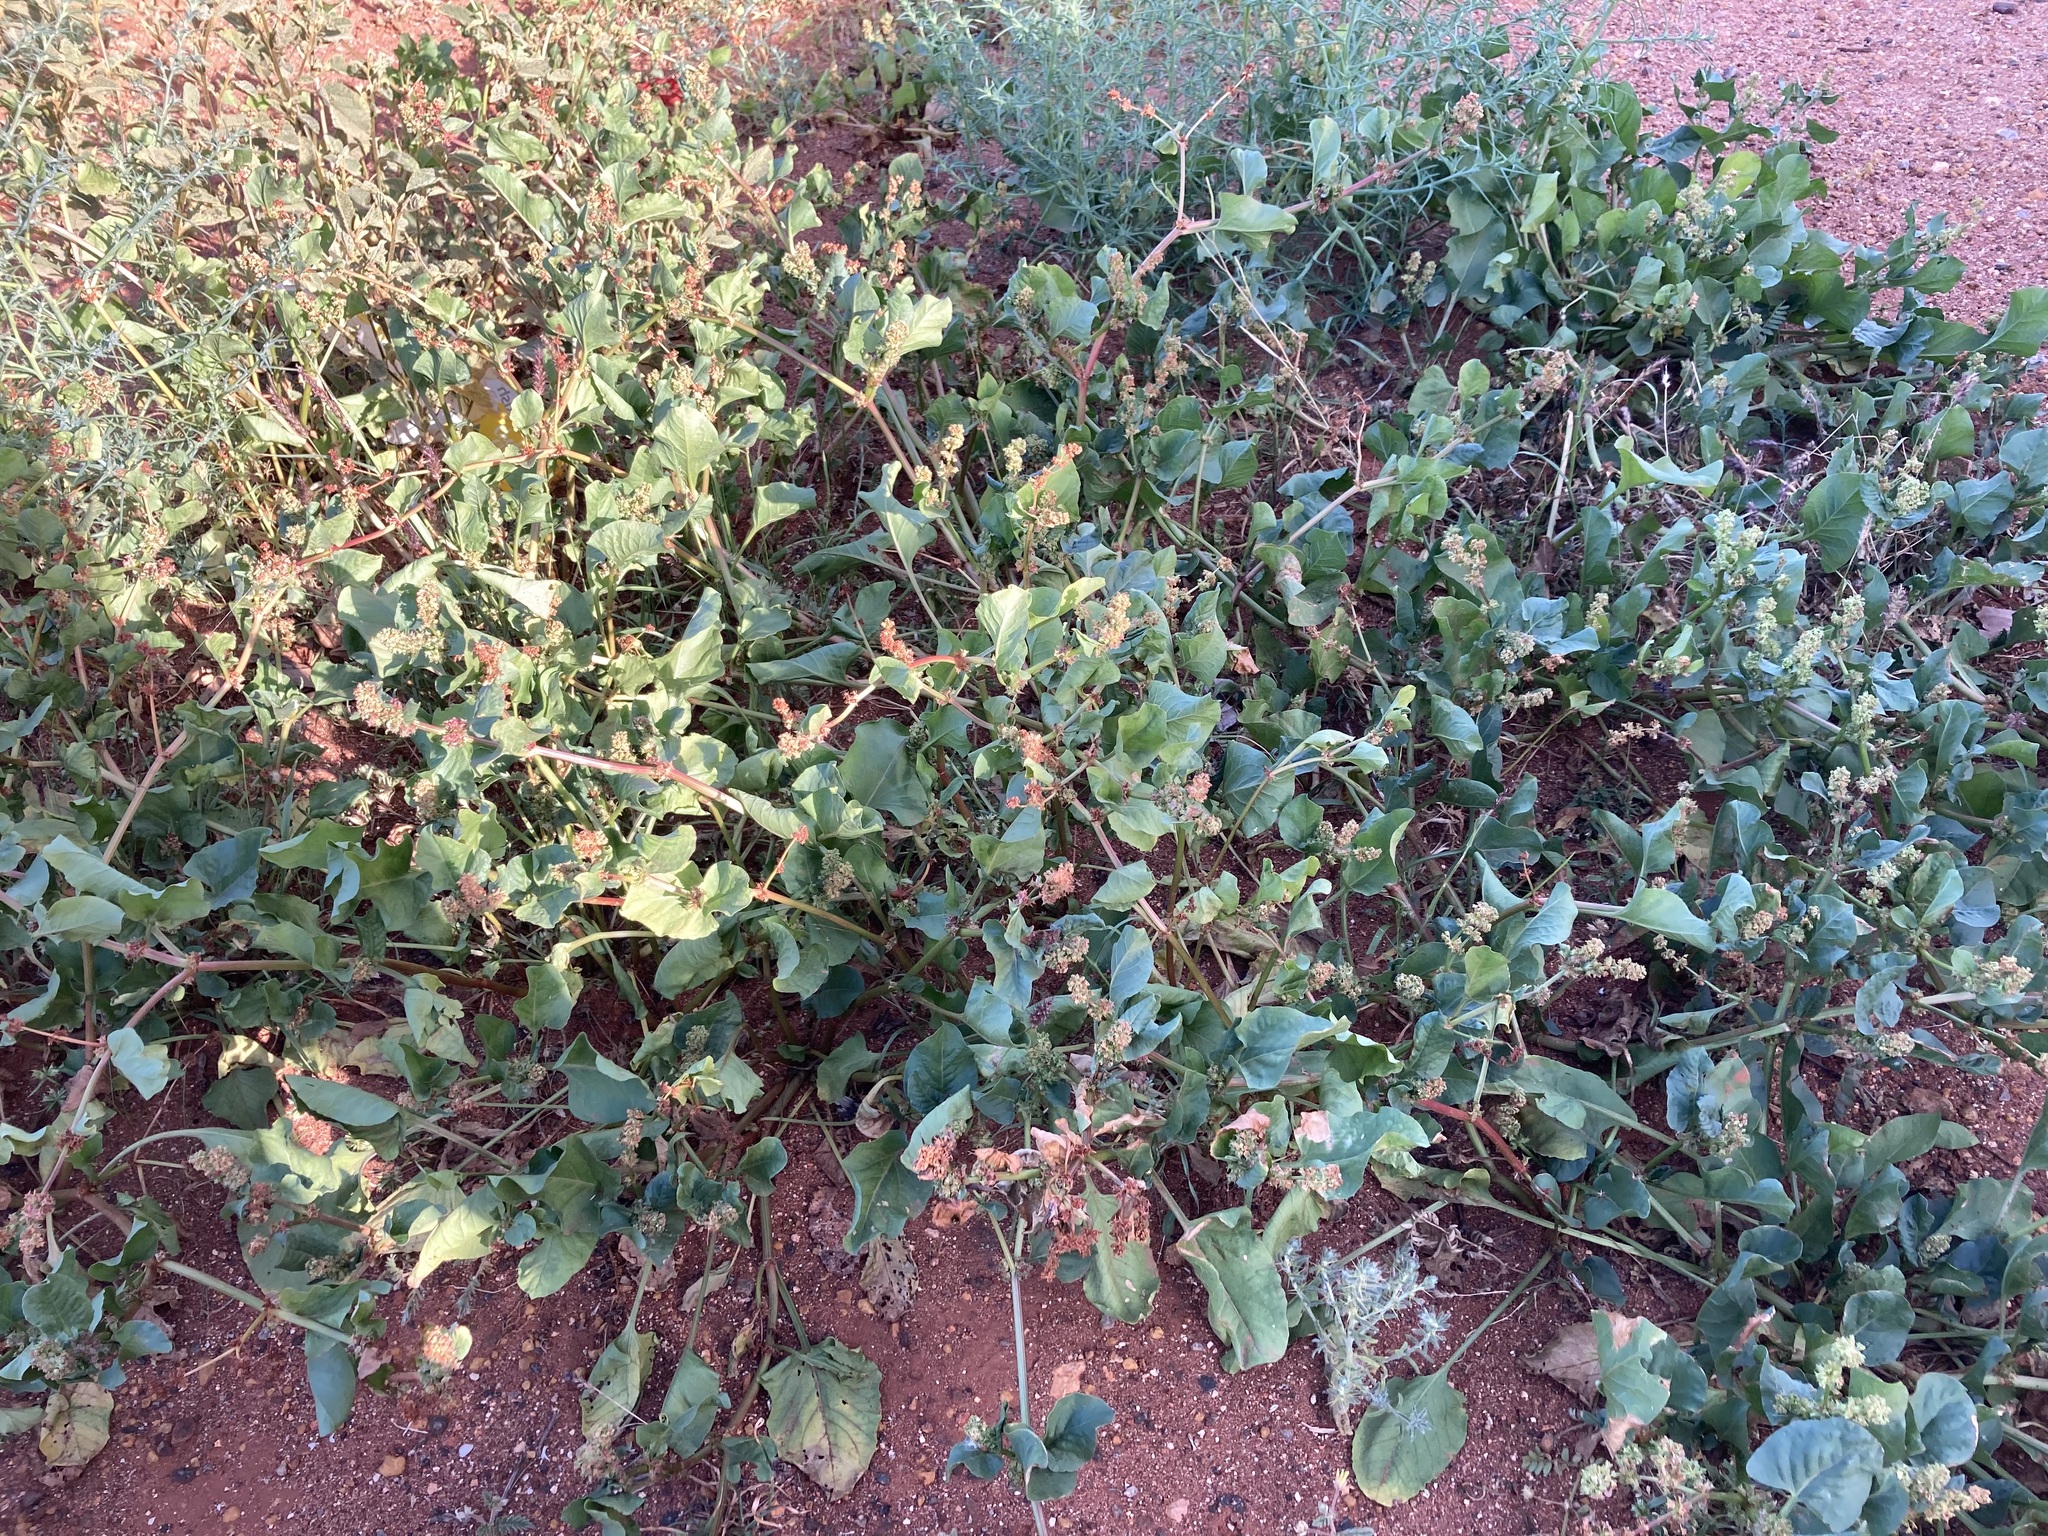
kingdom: Plantae
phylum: Tracheophyta
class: Magnoliopsida
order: Caryophyllales
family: Polygonaceae
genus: Rumex
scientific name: Rumex hypogaeus
